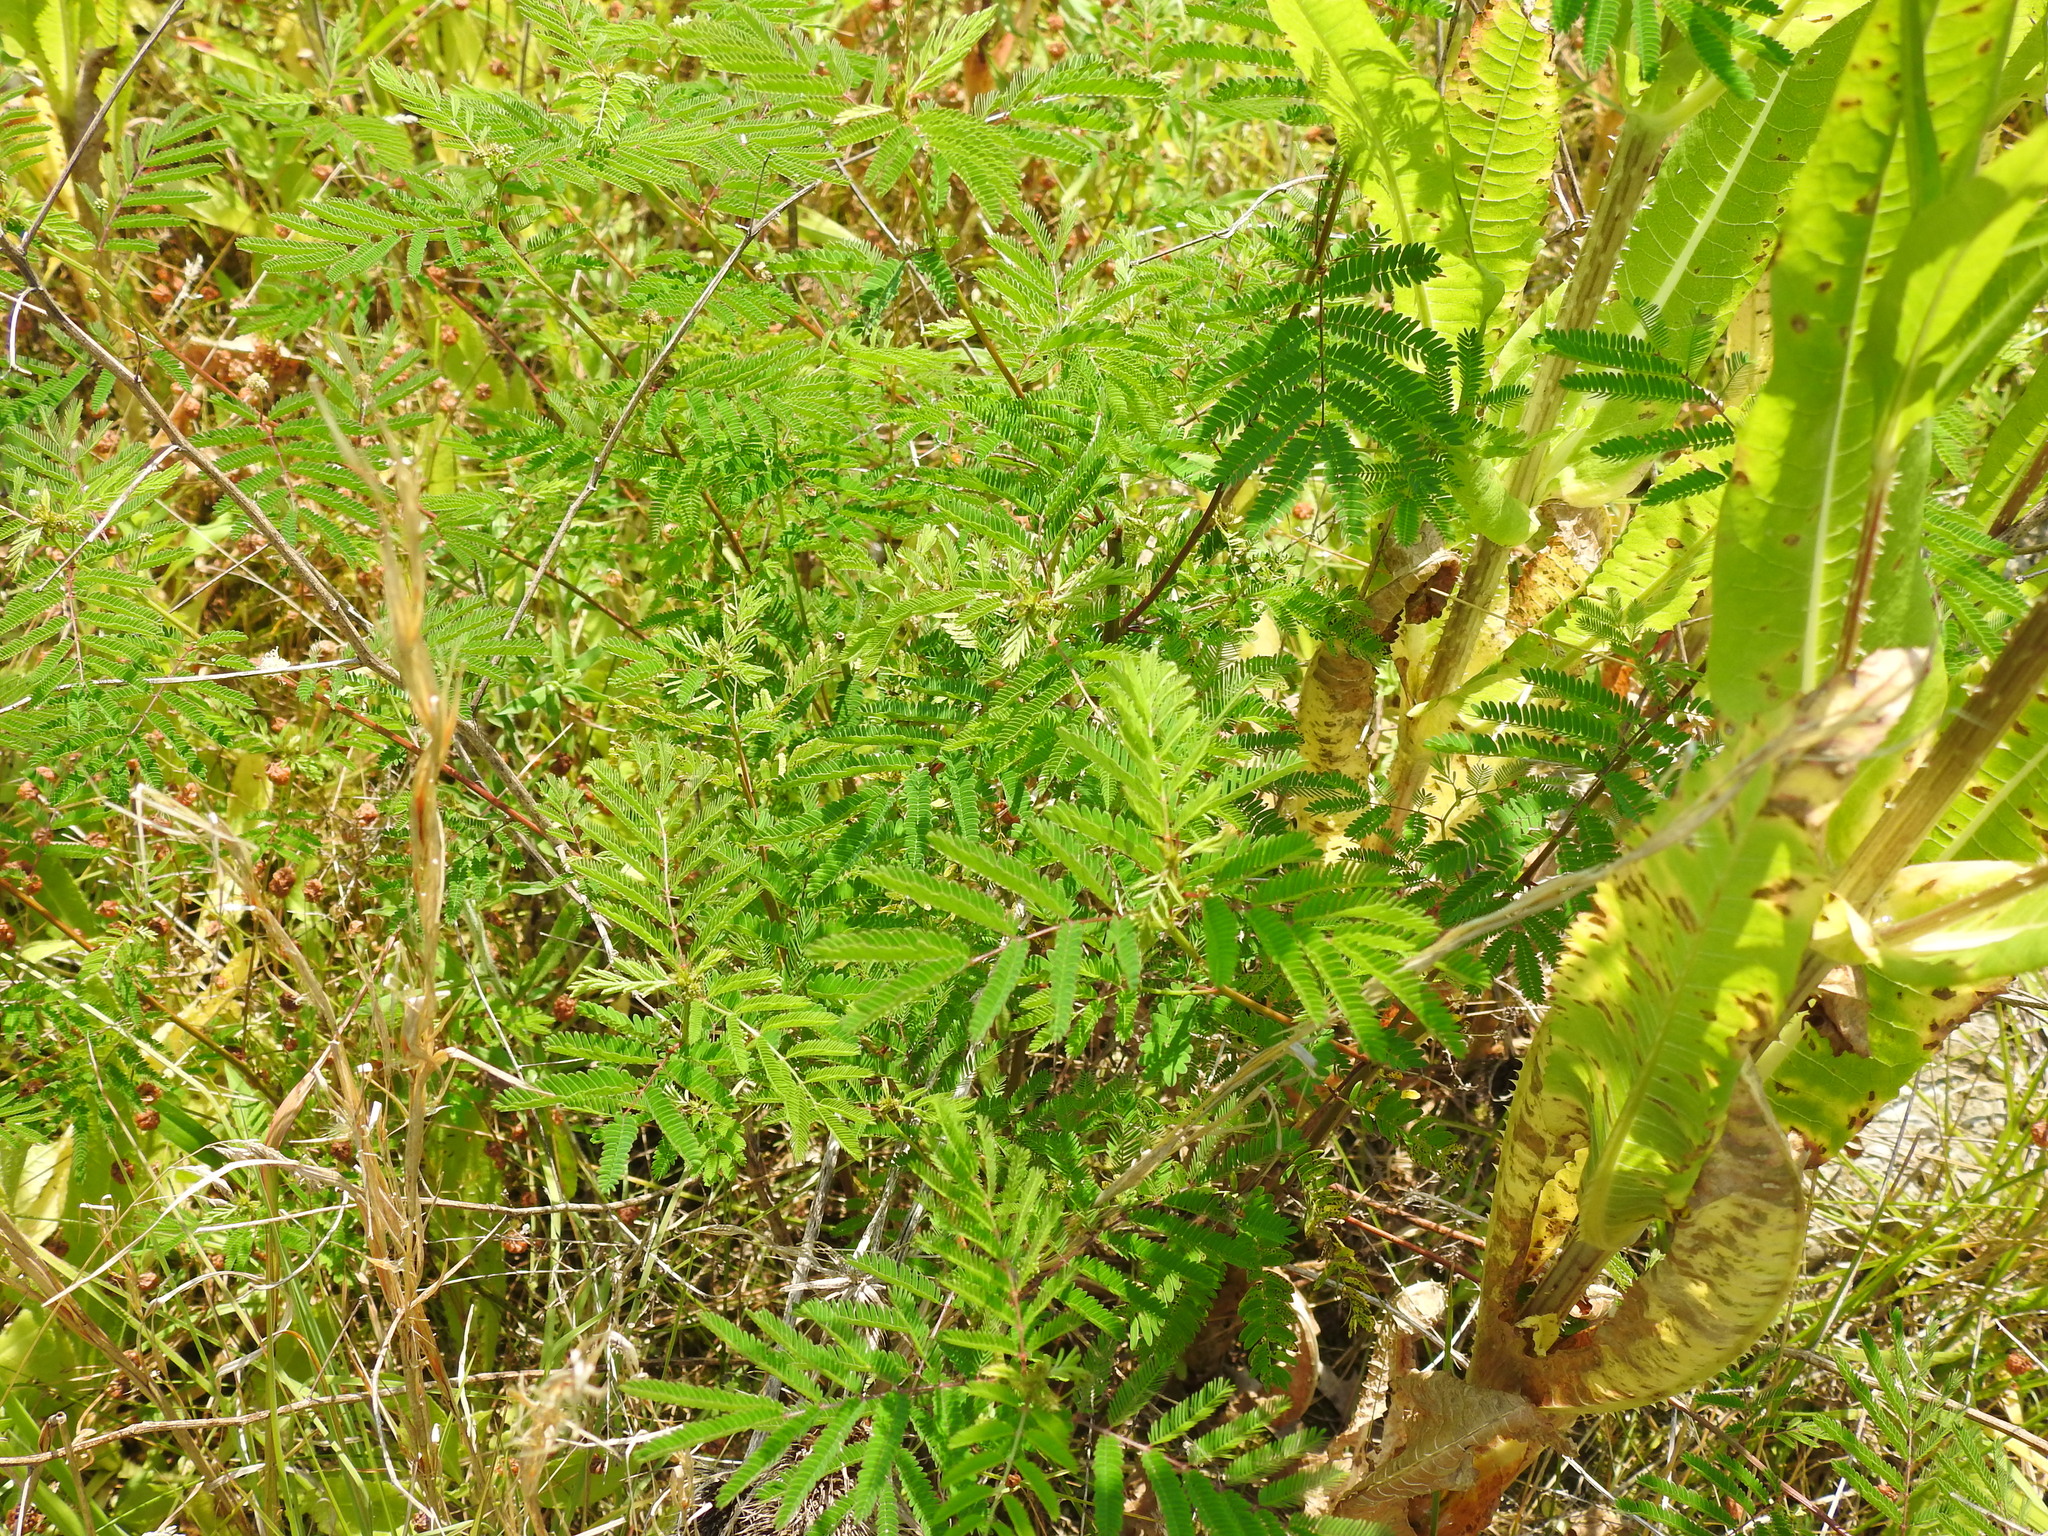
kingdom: Plantae
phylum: Tracheophyta
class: Magnoliopsida
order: Fabales
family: Fabaceae
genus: Desmanthus
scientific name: Desmanthus illinoensis
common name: Illinois bundle-flower
